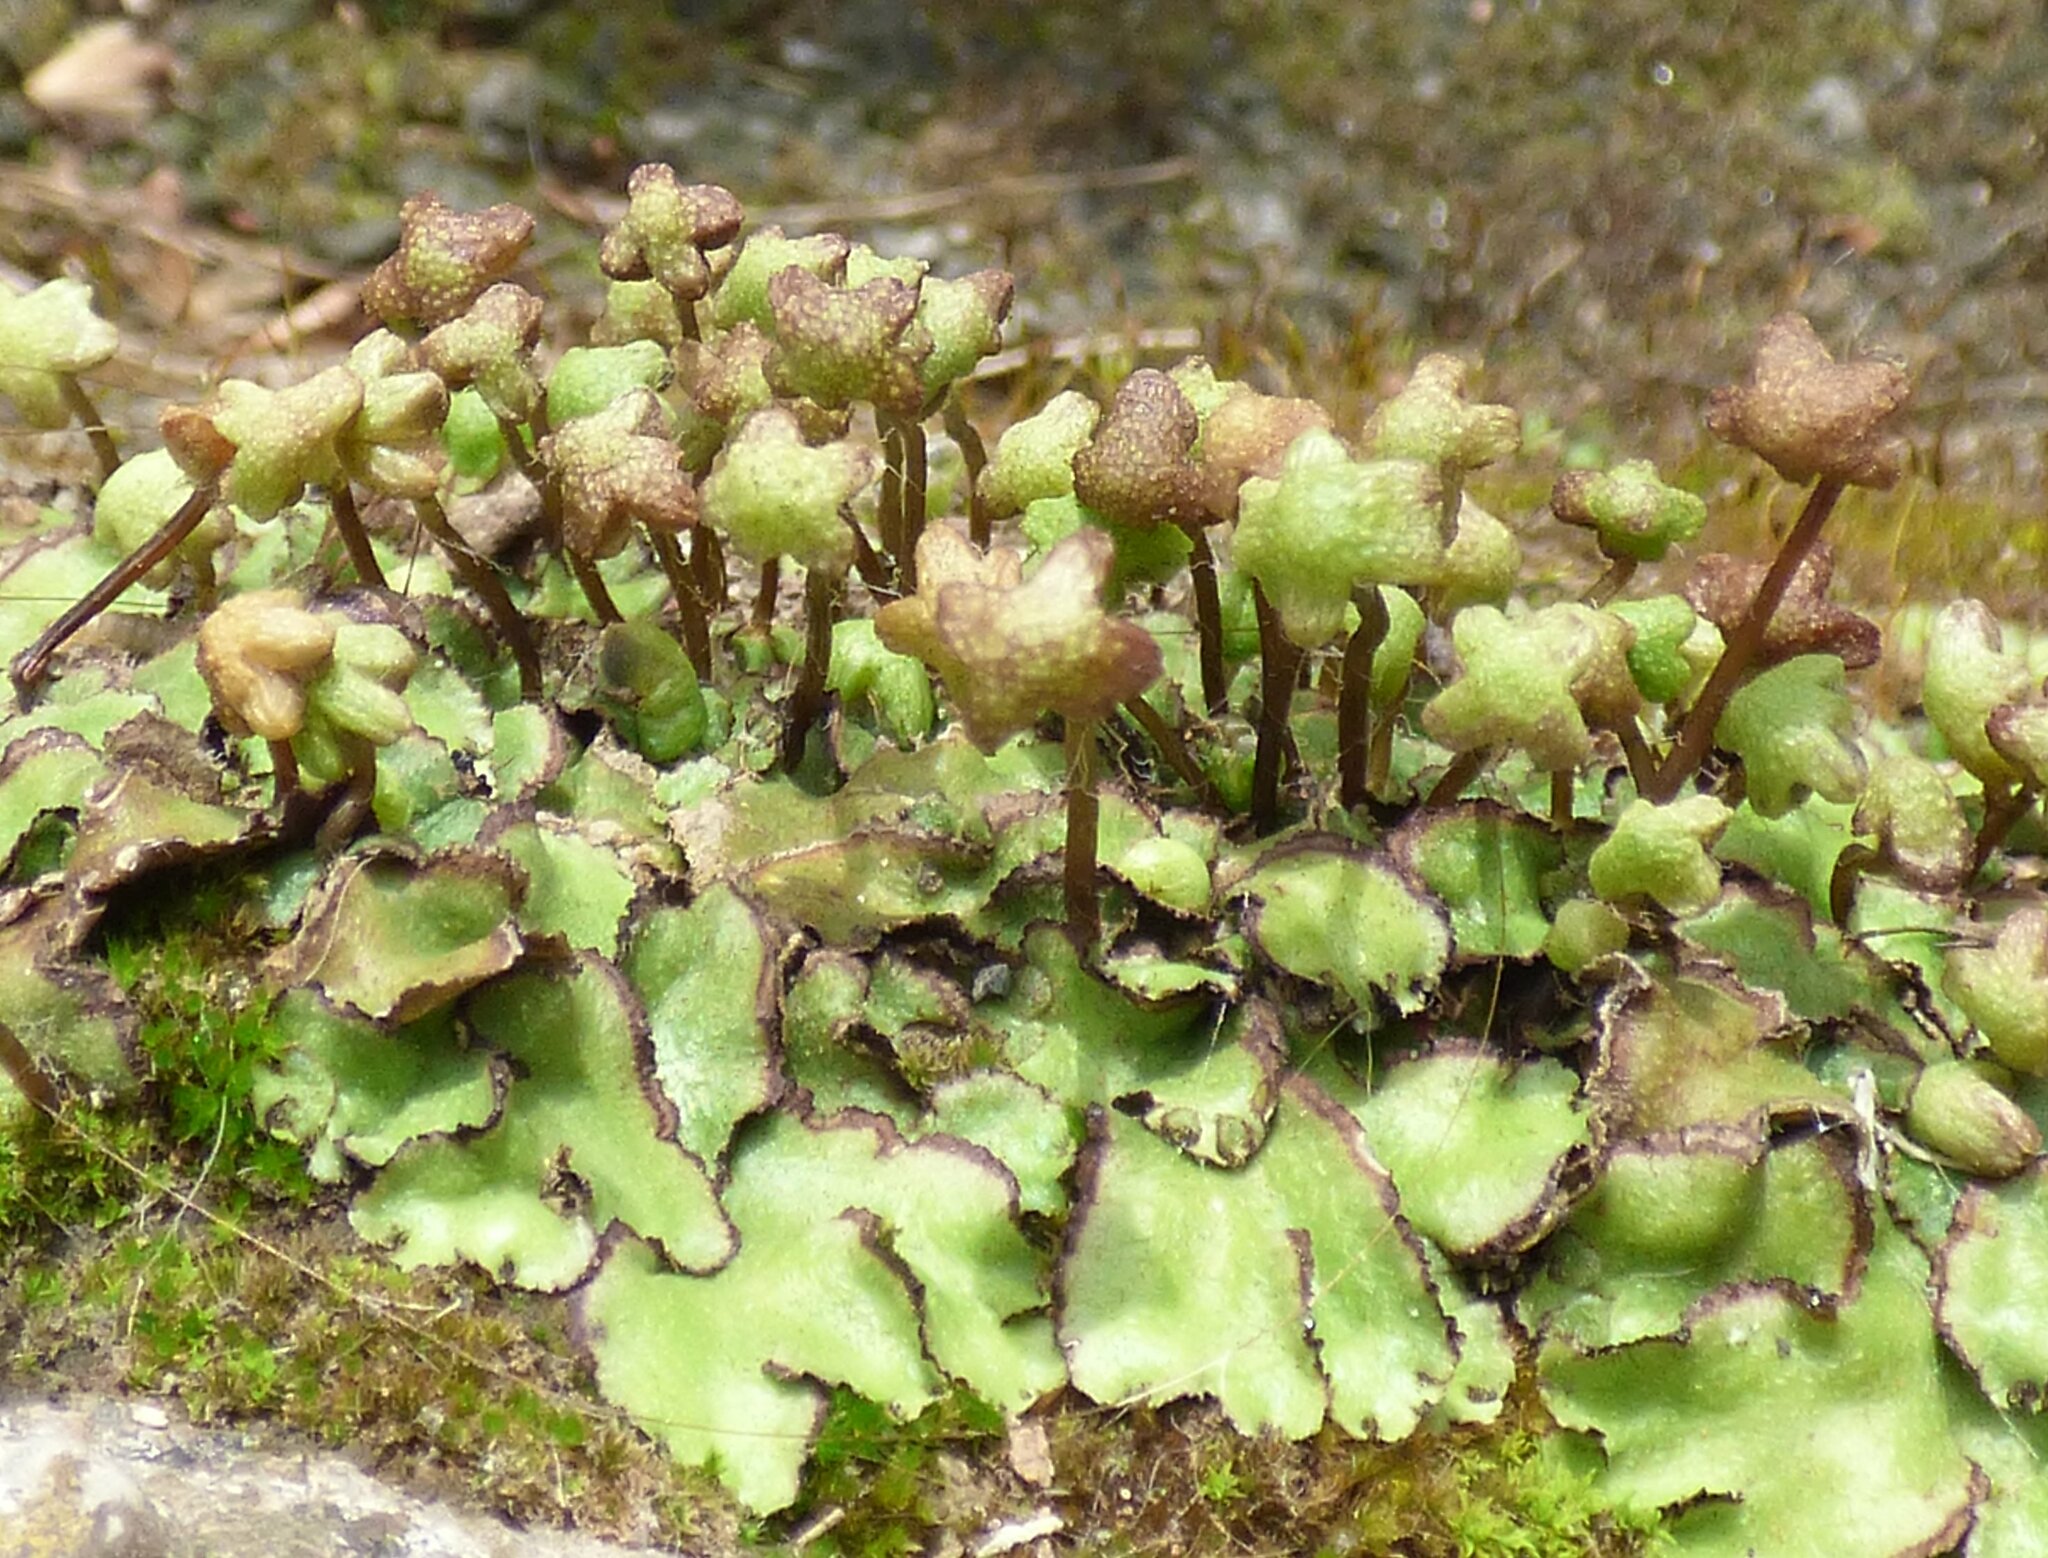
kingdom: Plantae
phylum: Marchantiophyta
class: Marchantiopsida
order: Marchantiales
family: Aytoniaceae
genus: Reboulia
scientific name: Reboulia hemisphaerica
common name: Purple-margined liverwort
